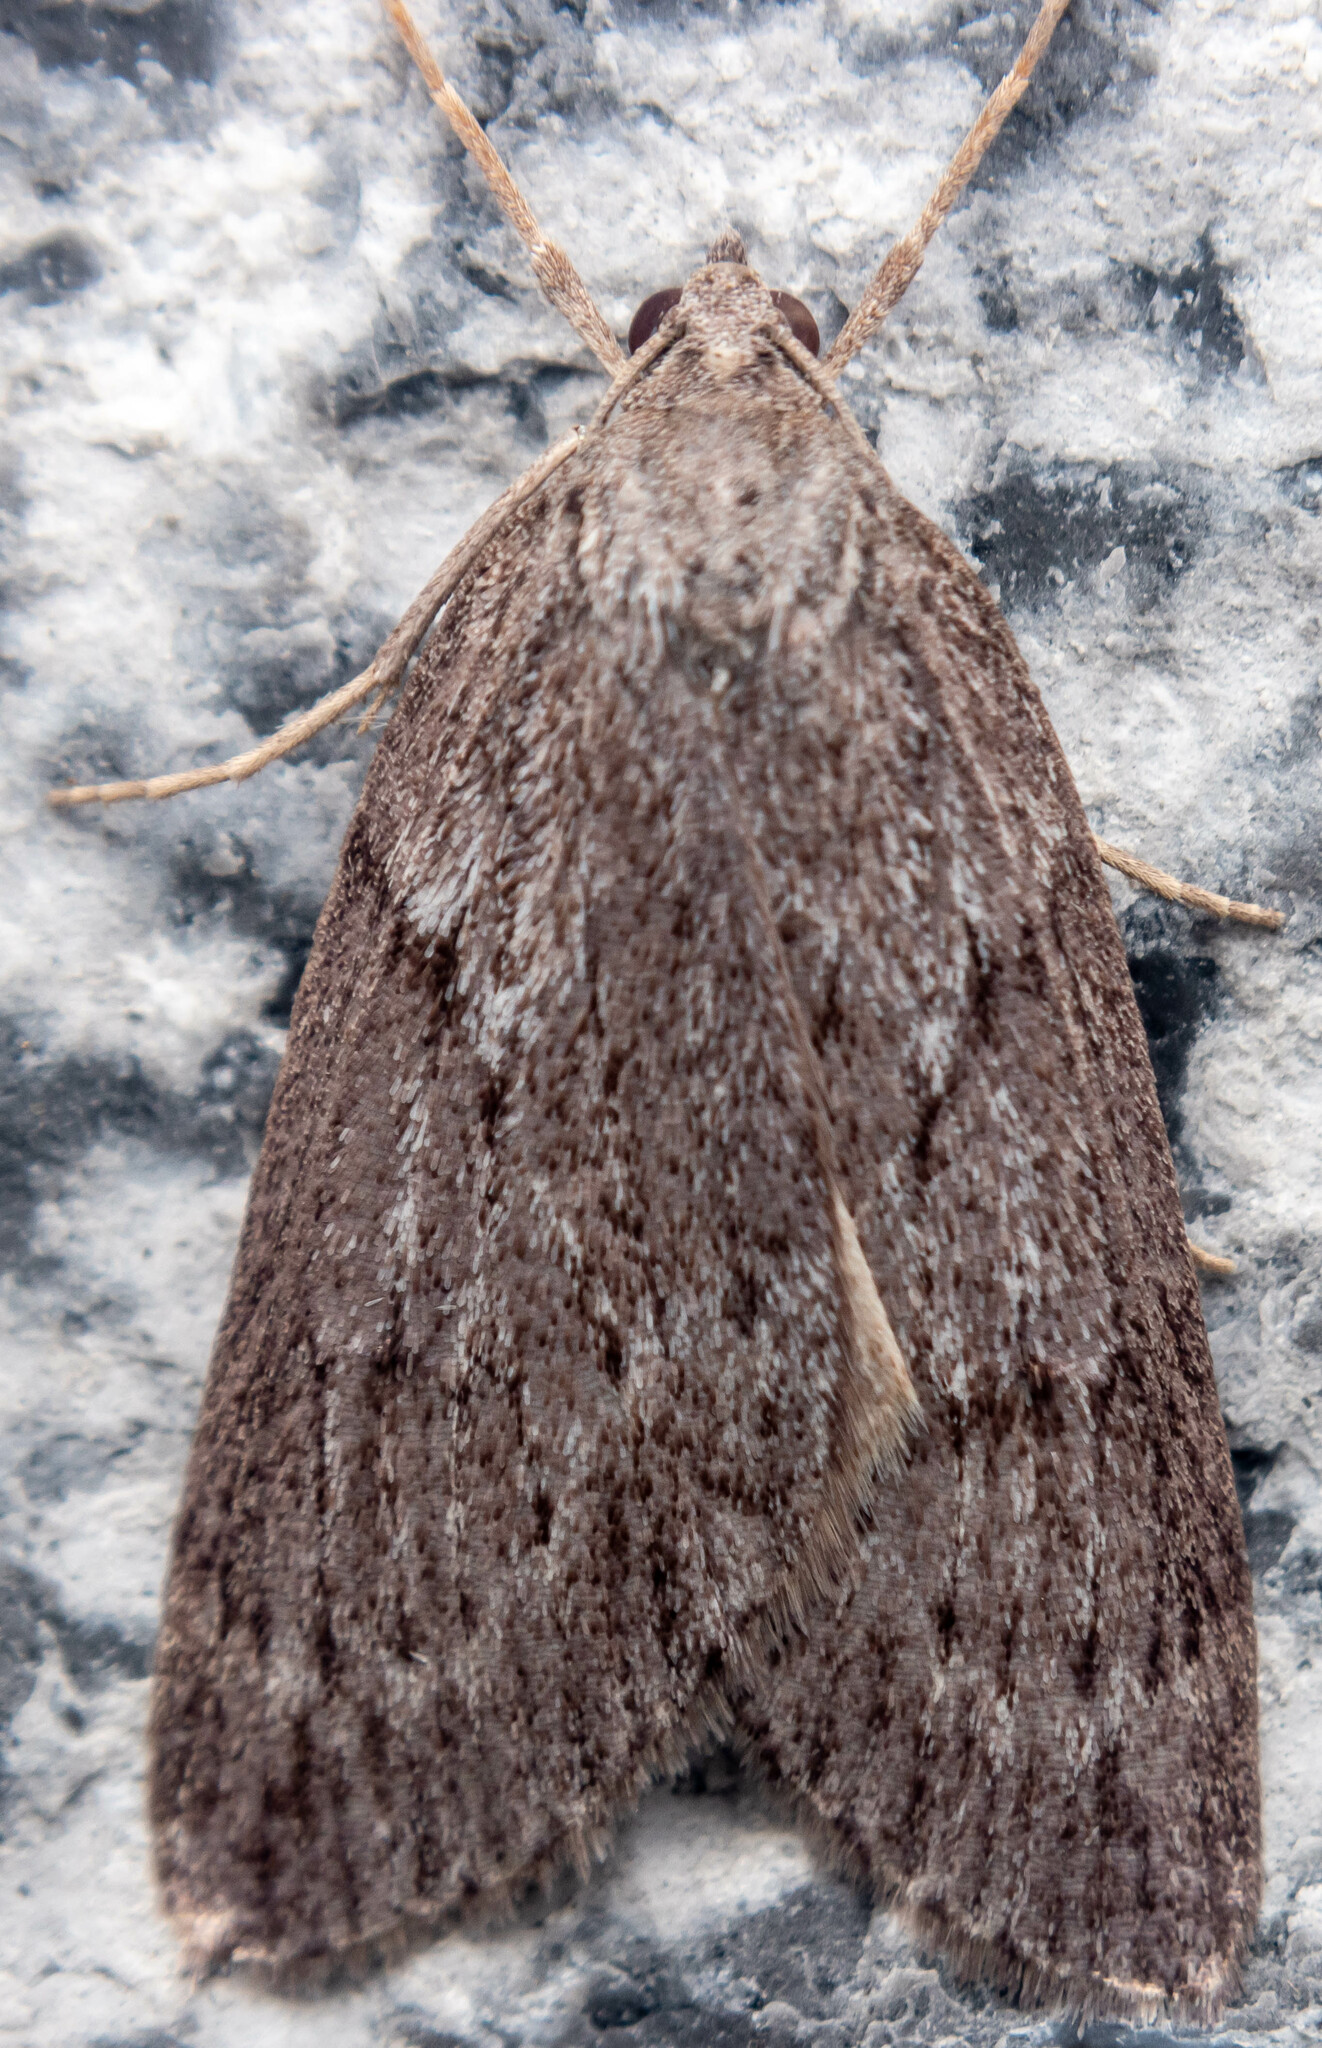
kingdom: Animalia
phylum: Arthropoda
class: Insecta
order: Lepidoptera
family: Geometridae
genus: Pachycnemia
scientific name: Pachycnemia hippocastanaria
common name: Horse chestnut
